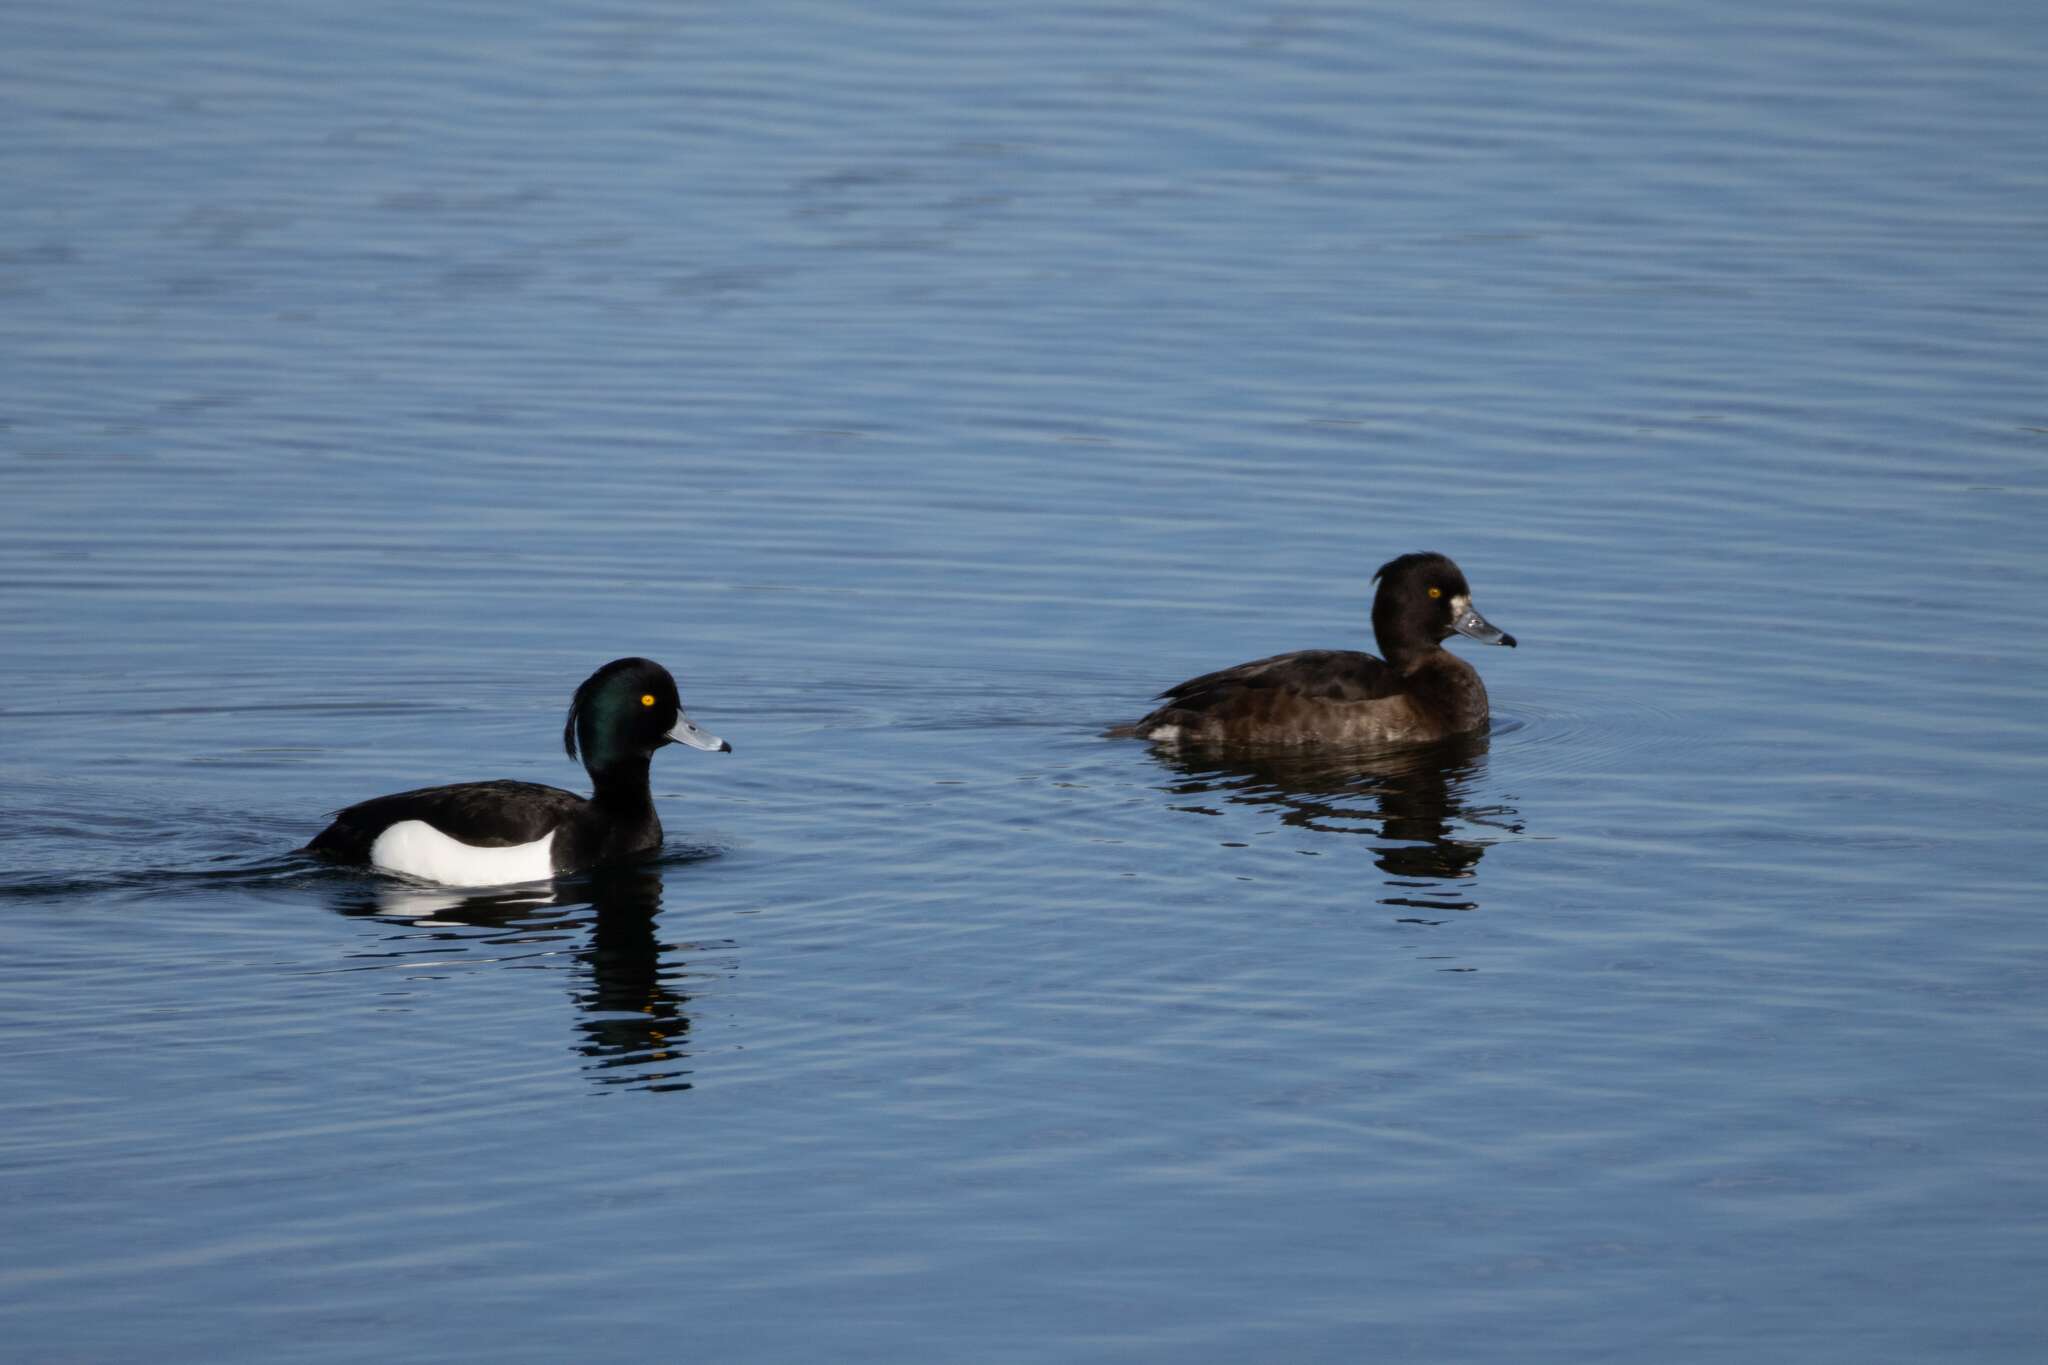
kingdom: Animalia
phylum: Chordata
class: Aves
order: Anseriformes
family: Anatidae
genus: Aythya
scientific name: Aythya fuligula
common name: Tufted duck
